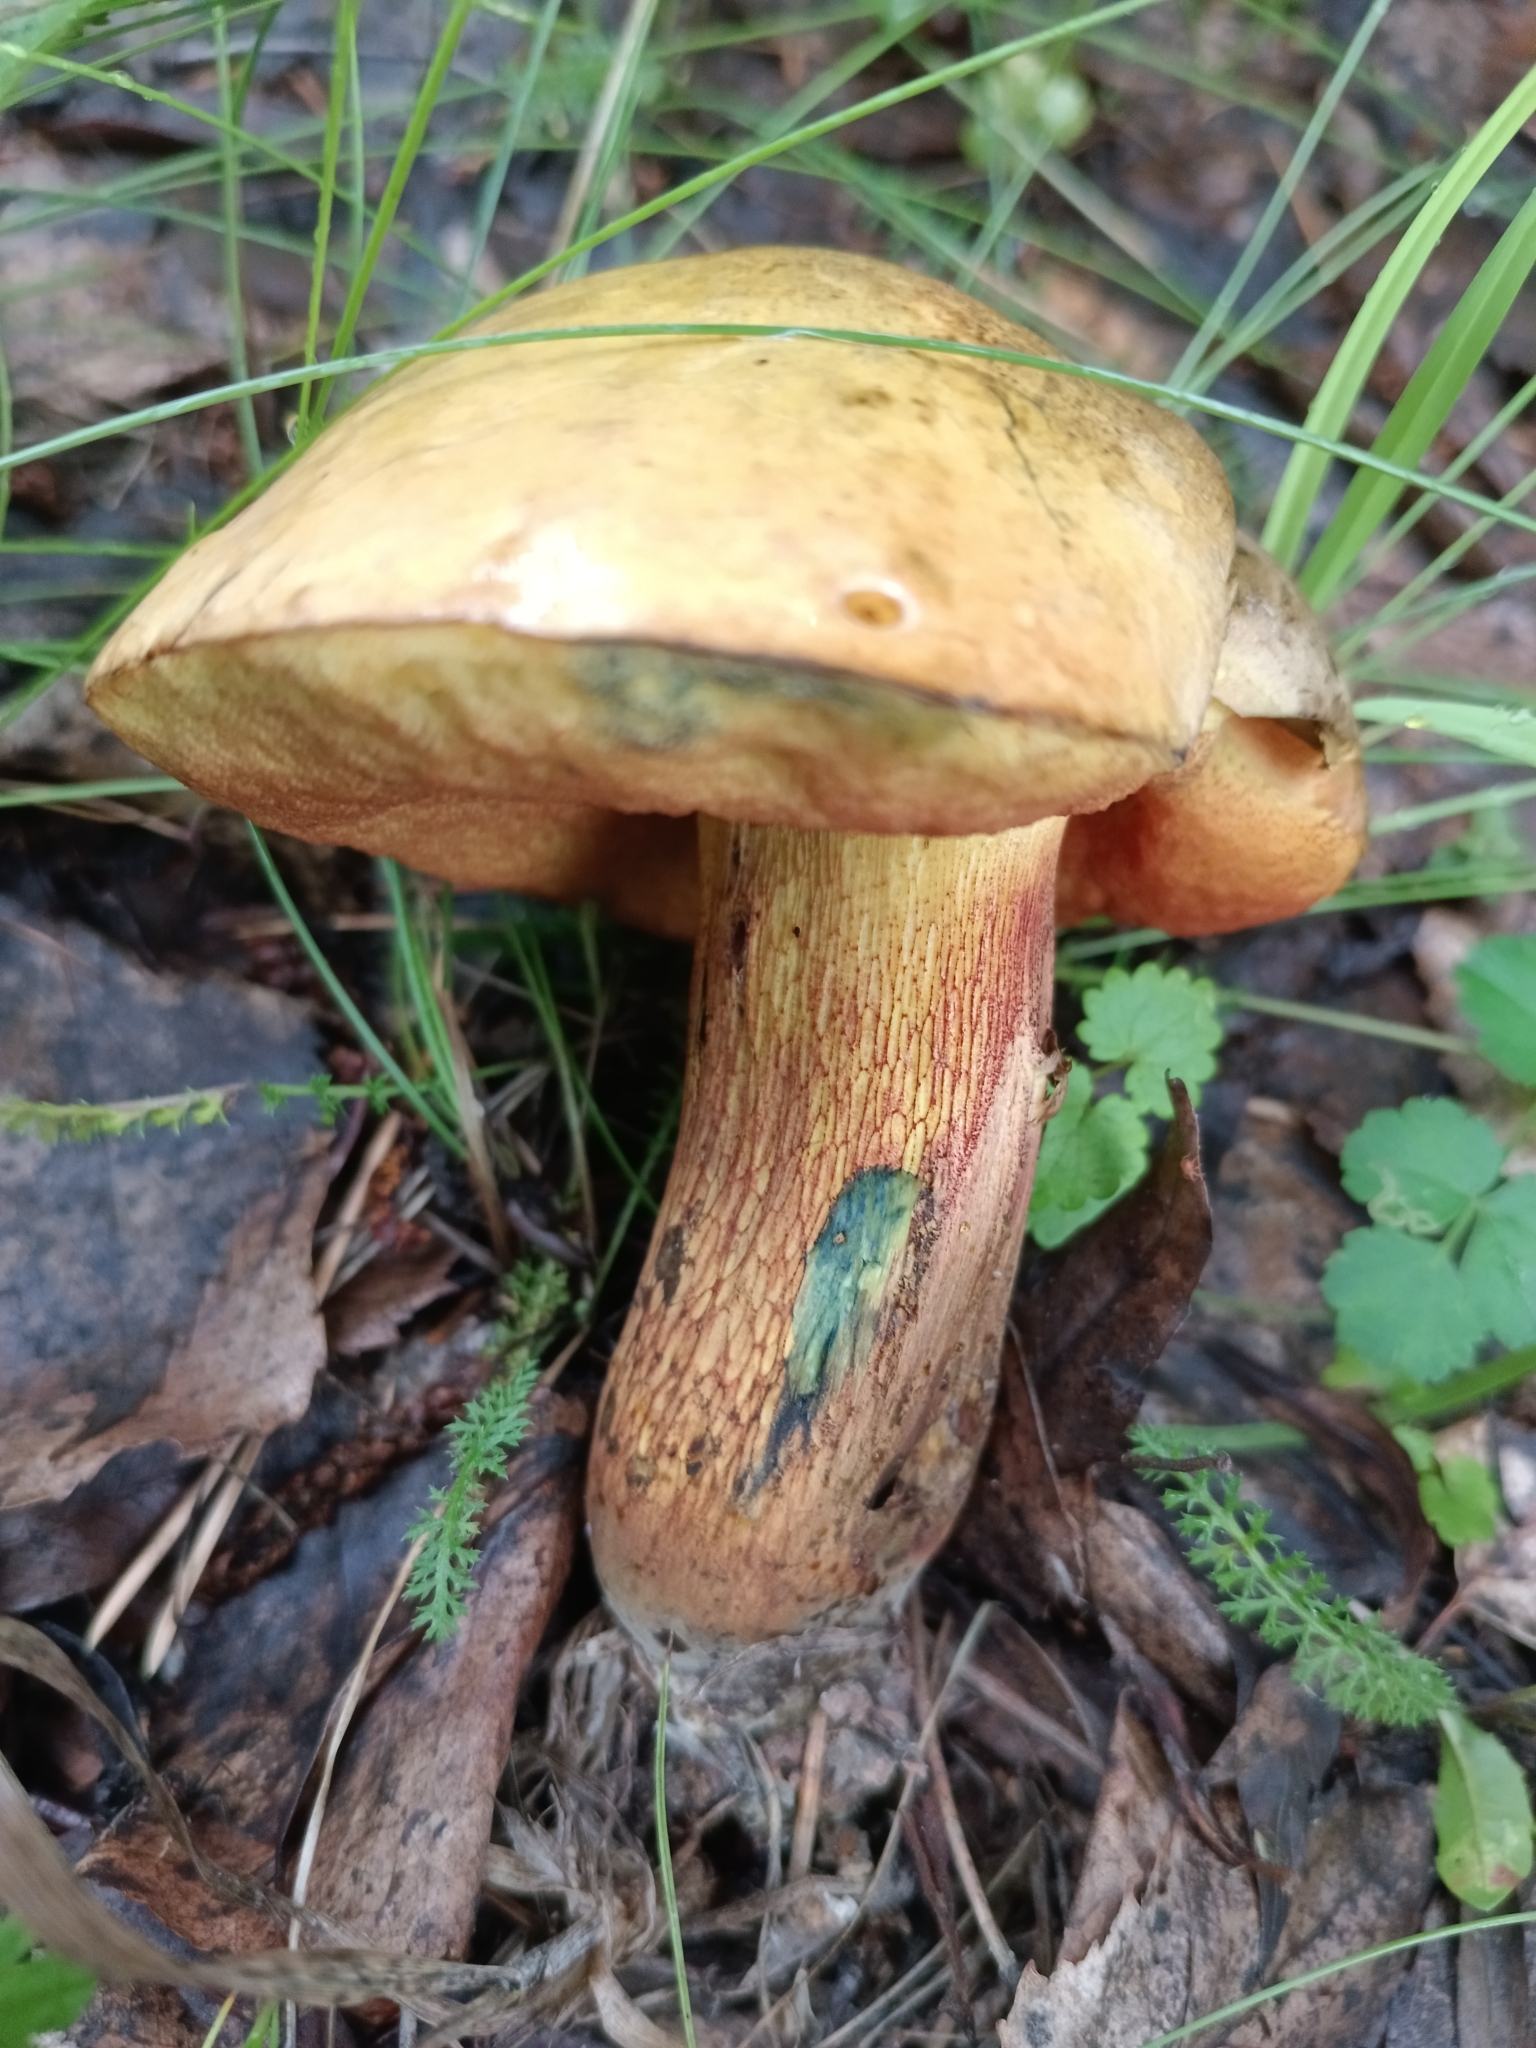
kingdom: Fungi
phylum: Basidiomycota
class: Agaricomycetes
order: Boletales
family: Boletaceae
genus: Suillellus
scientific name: Suillellus luridus
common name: Lurid bolete
